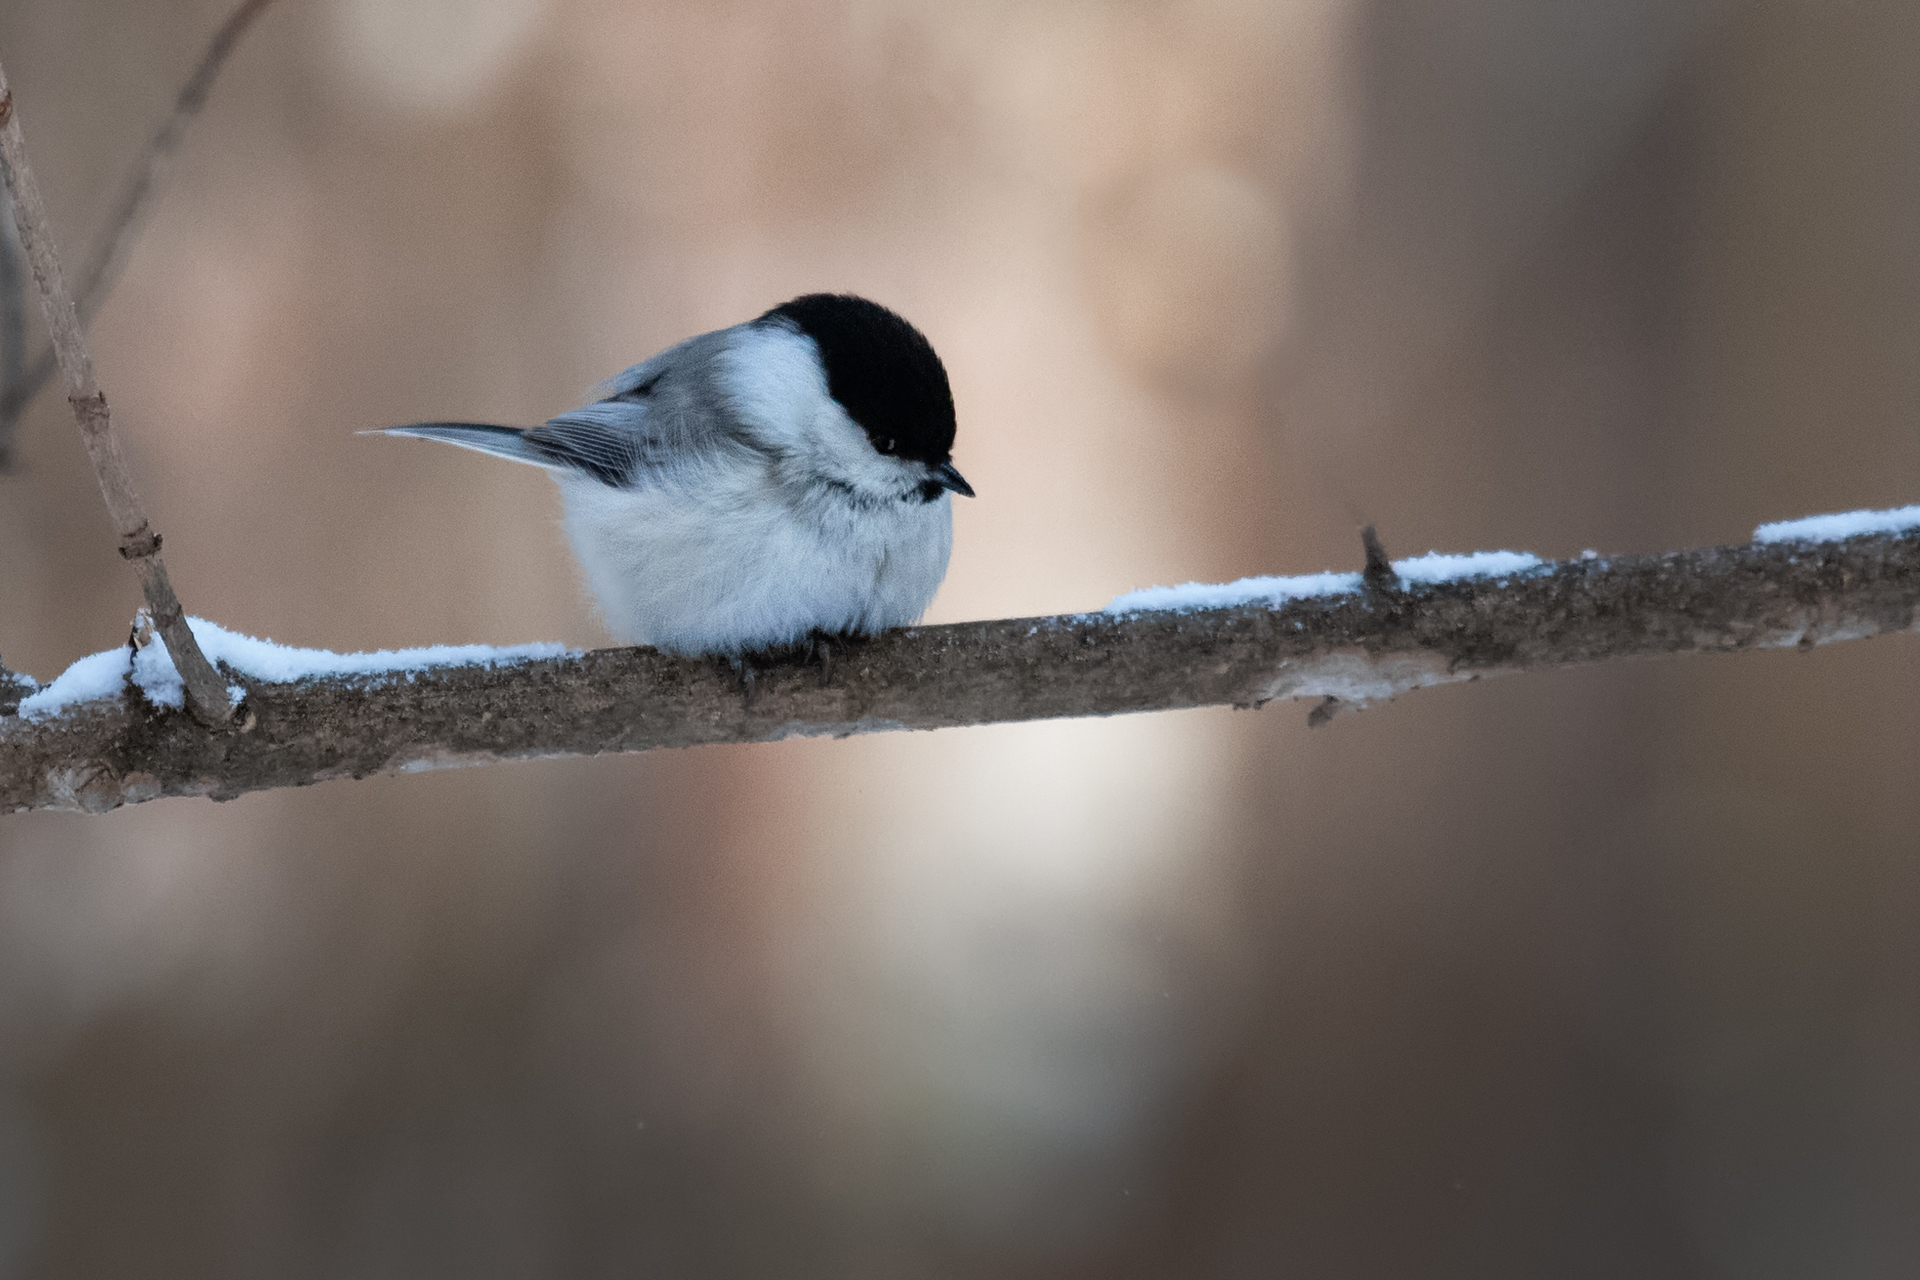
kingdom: Animalia
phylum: Chordata
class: Aves
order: Passeriformes
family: Paridae
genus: Poecile
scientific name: Poecile montanus
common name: Willow tit
